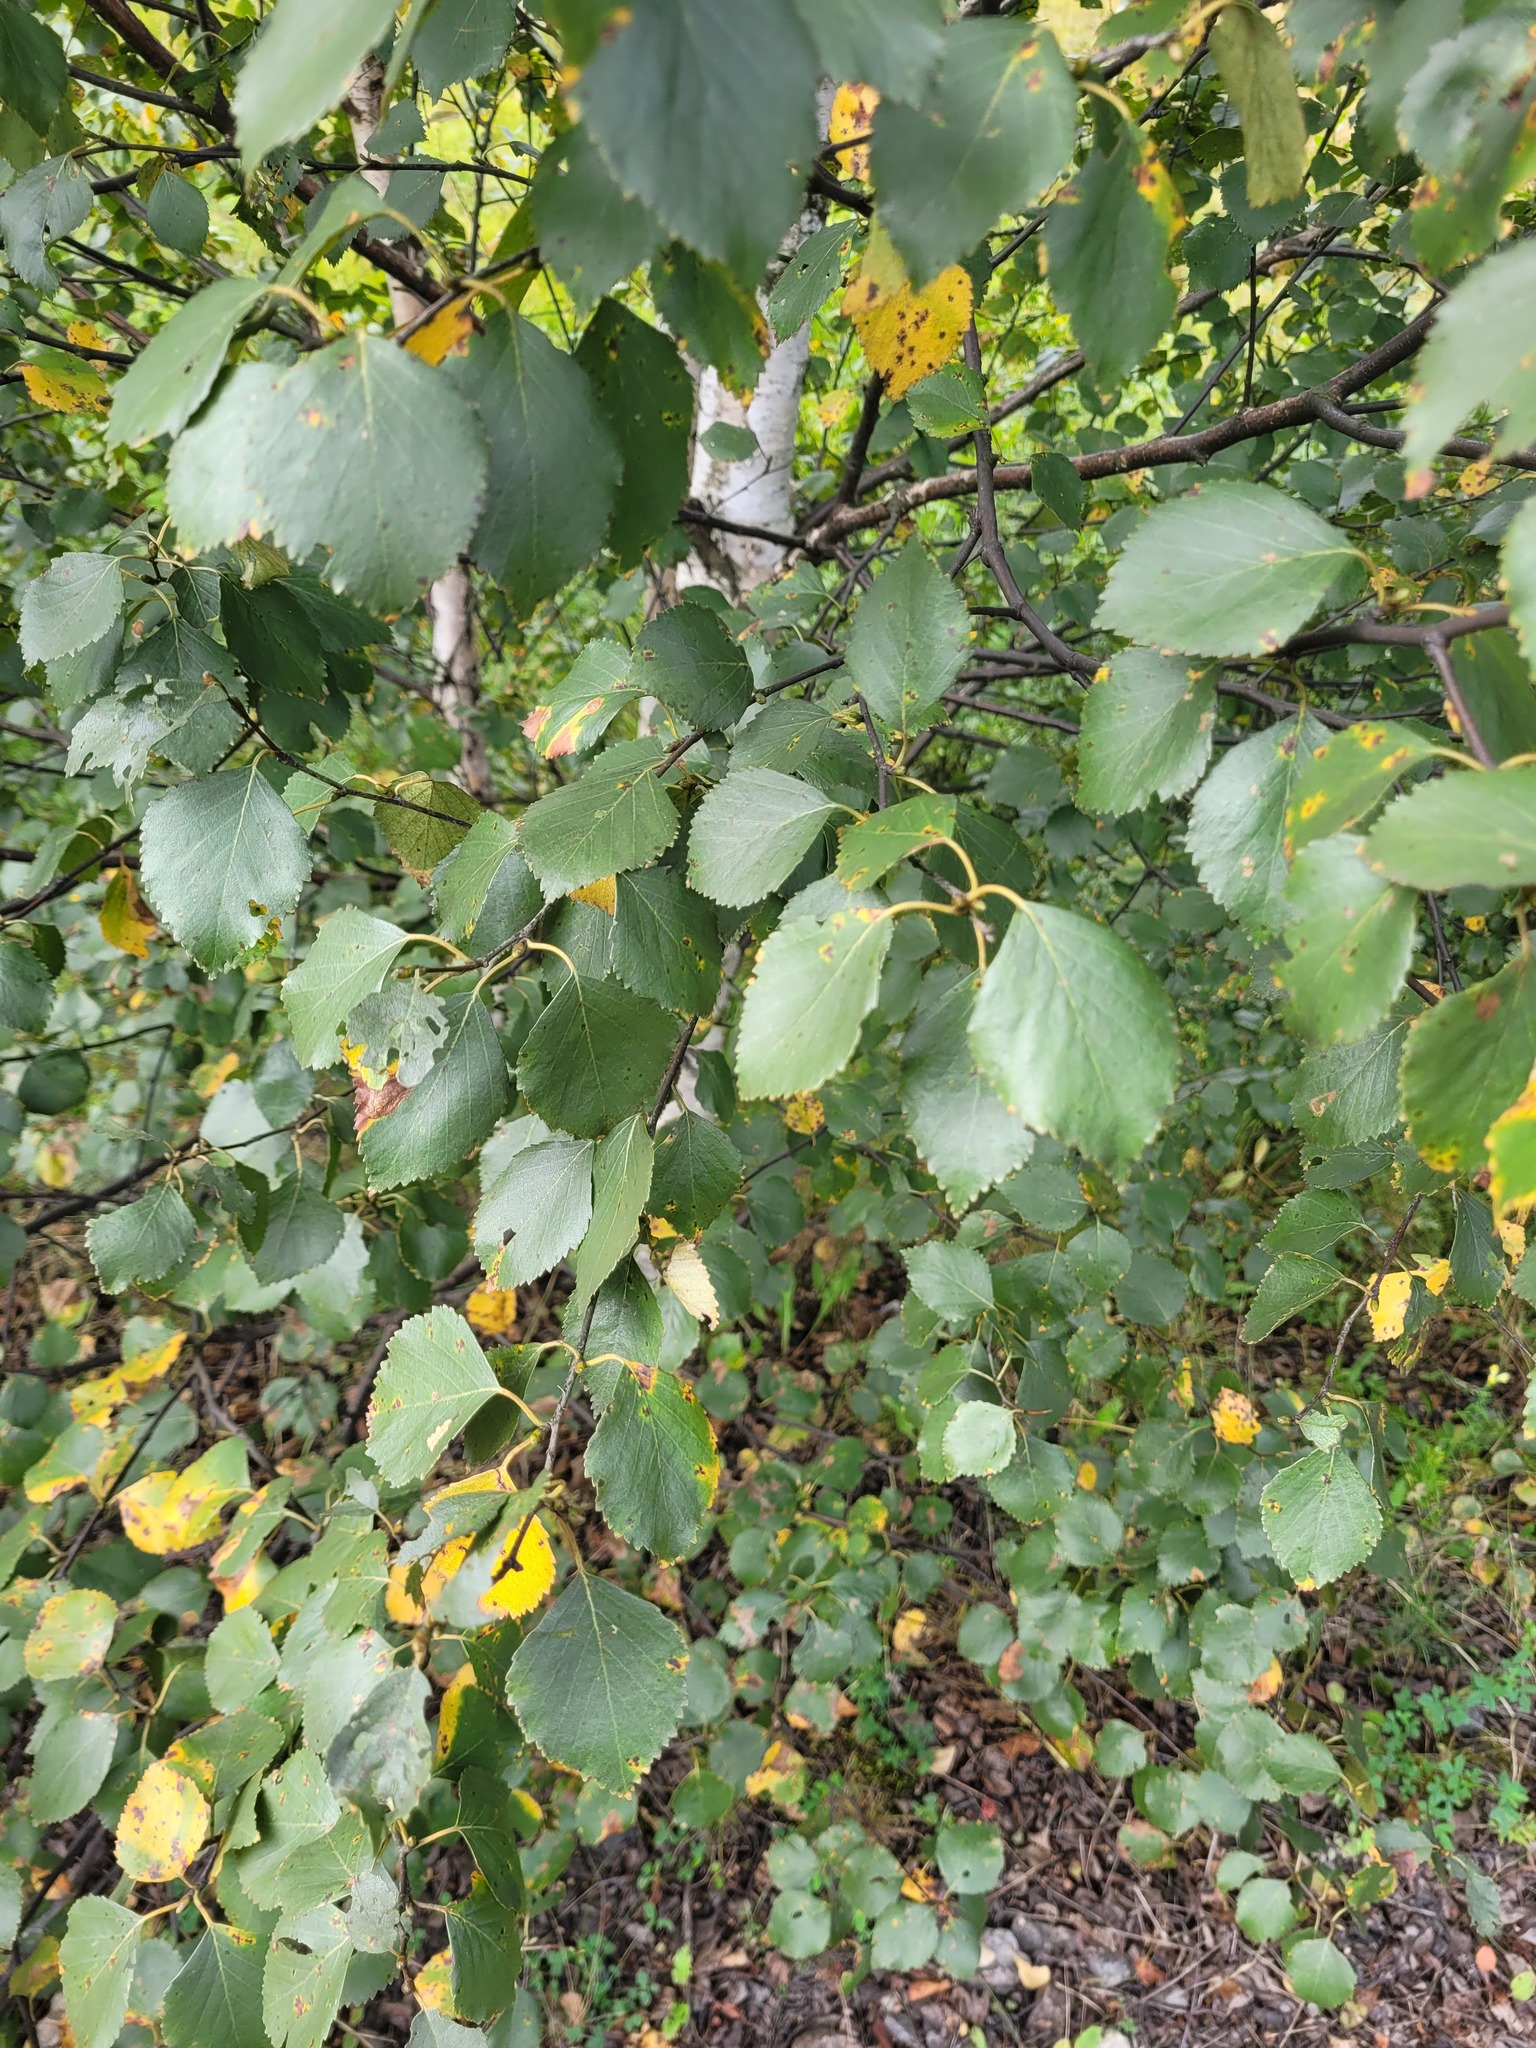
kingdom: Plantae
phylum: Tracheophyta
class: Magnoliopsida
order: Fagales
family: Betulaceae
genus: Betula
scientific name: Betula pubescens
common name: Downy birch
